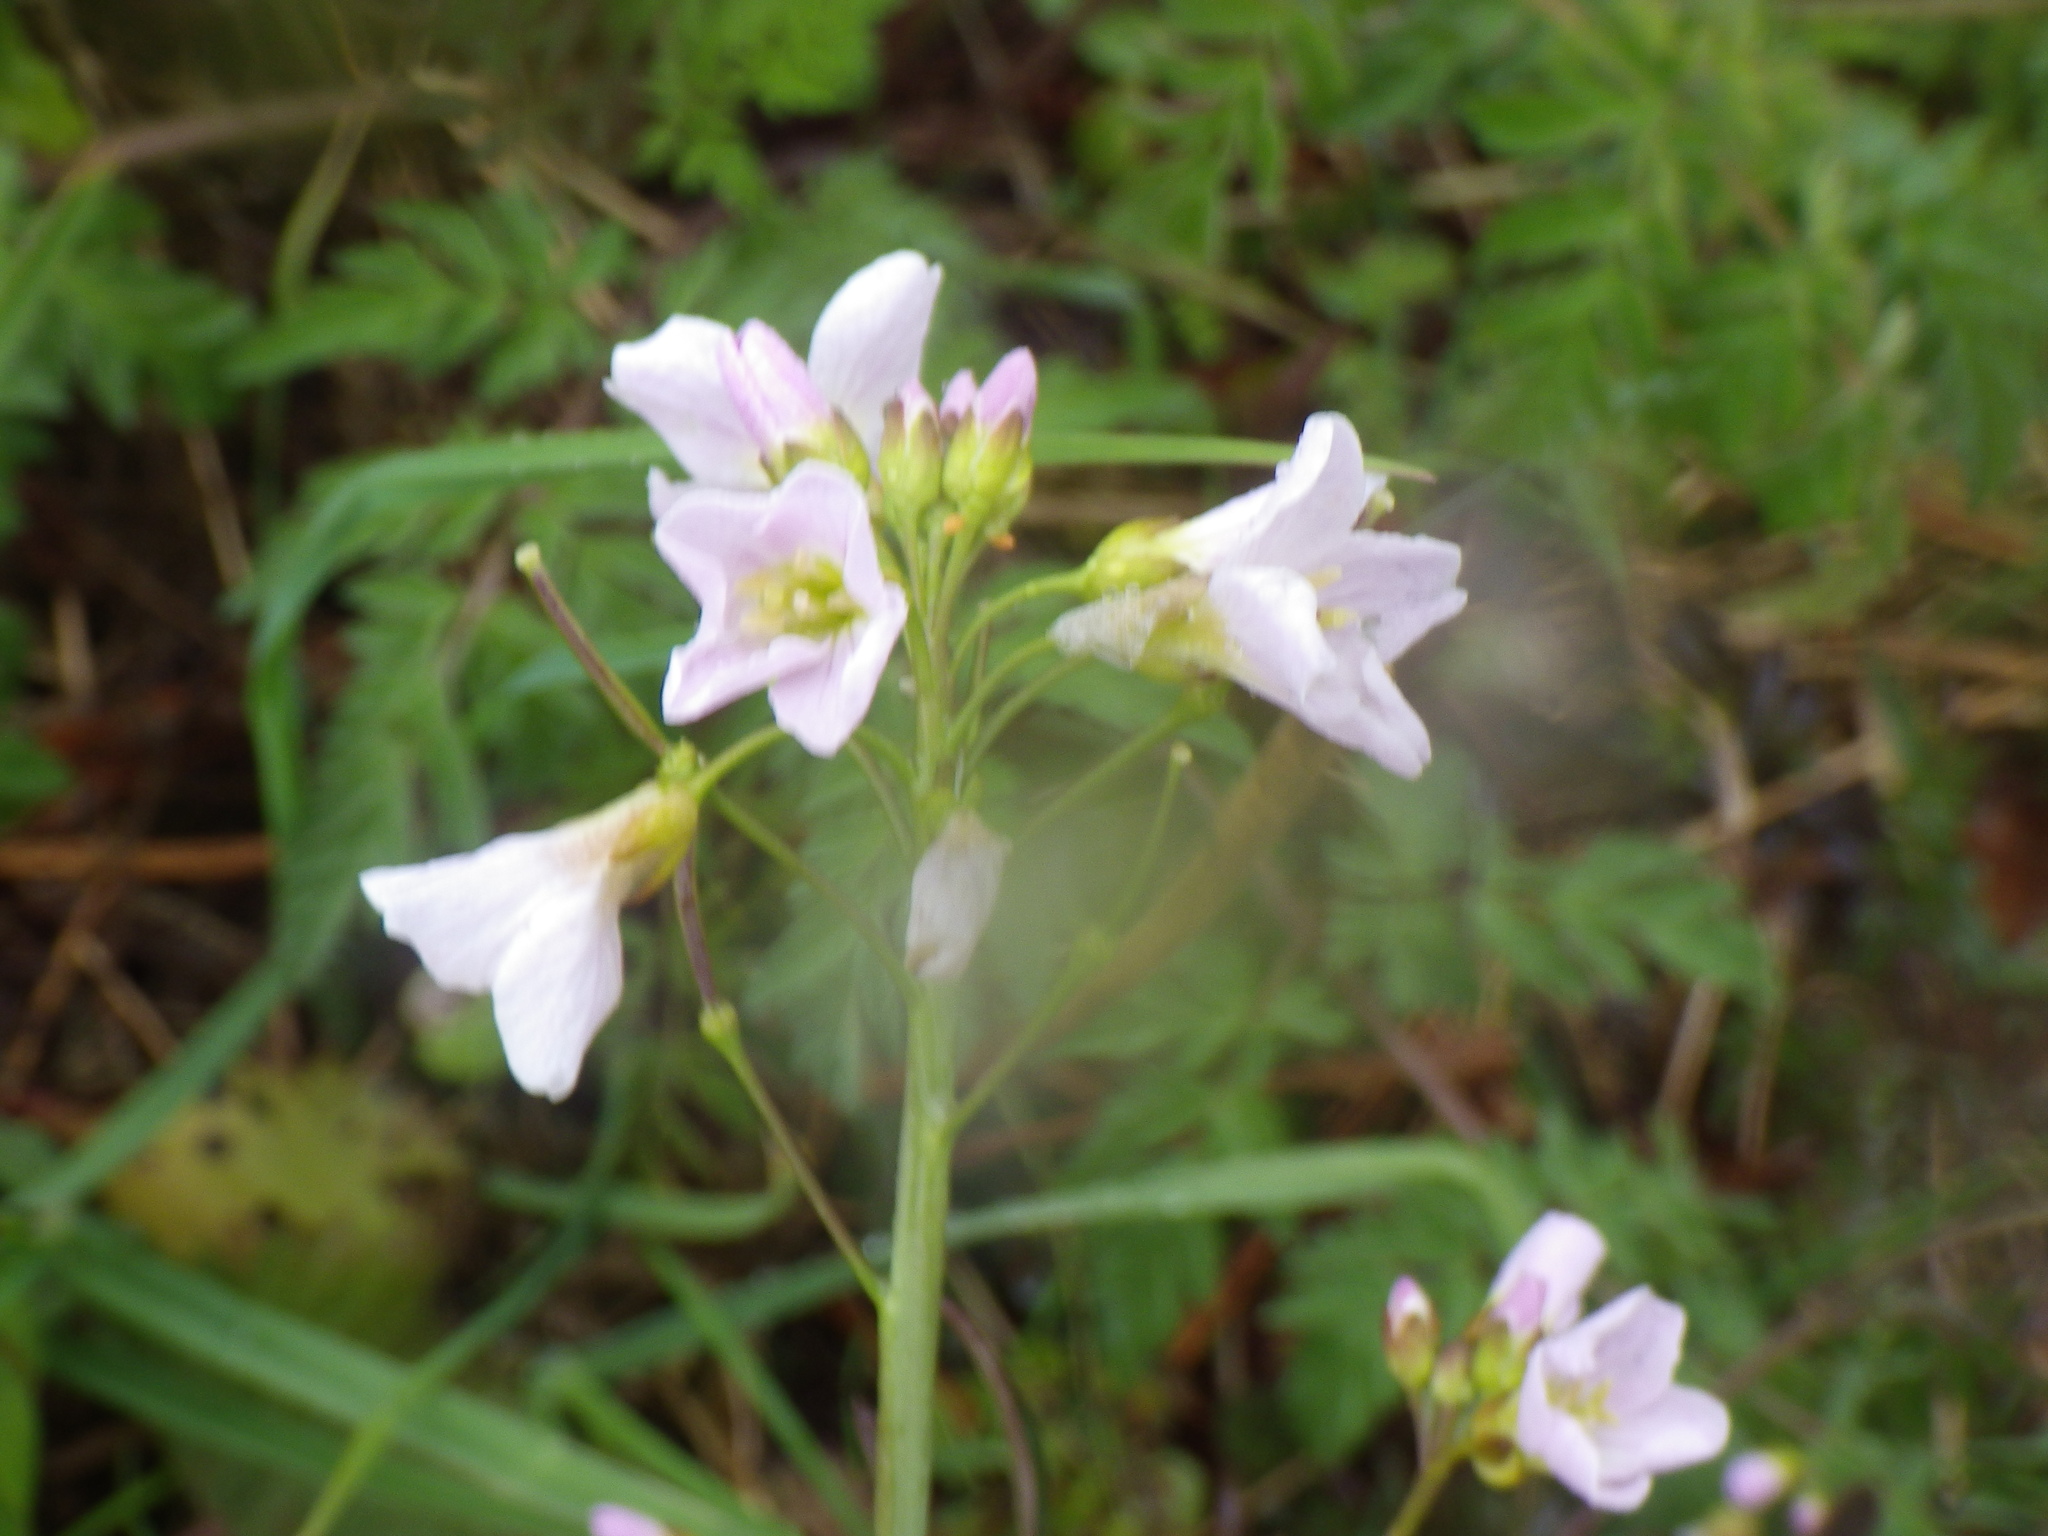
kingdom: Plantae
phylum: Tracheophyta
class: Magnoliopsida
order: Brassicales
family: Brassicaceae
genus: Cardamine
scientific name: Cardamine pratensis
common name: Cuckoo flower
